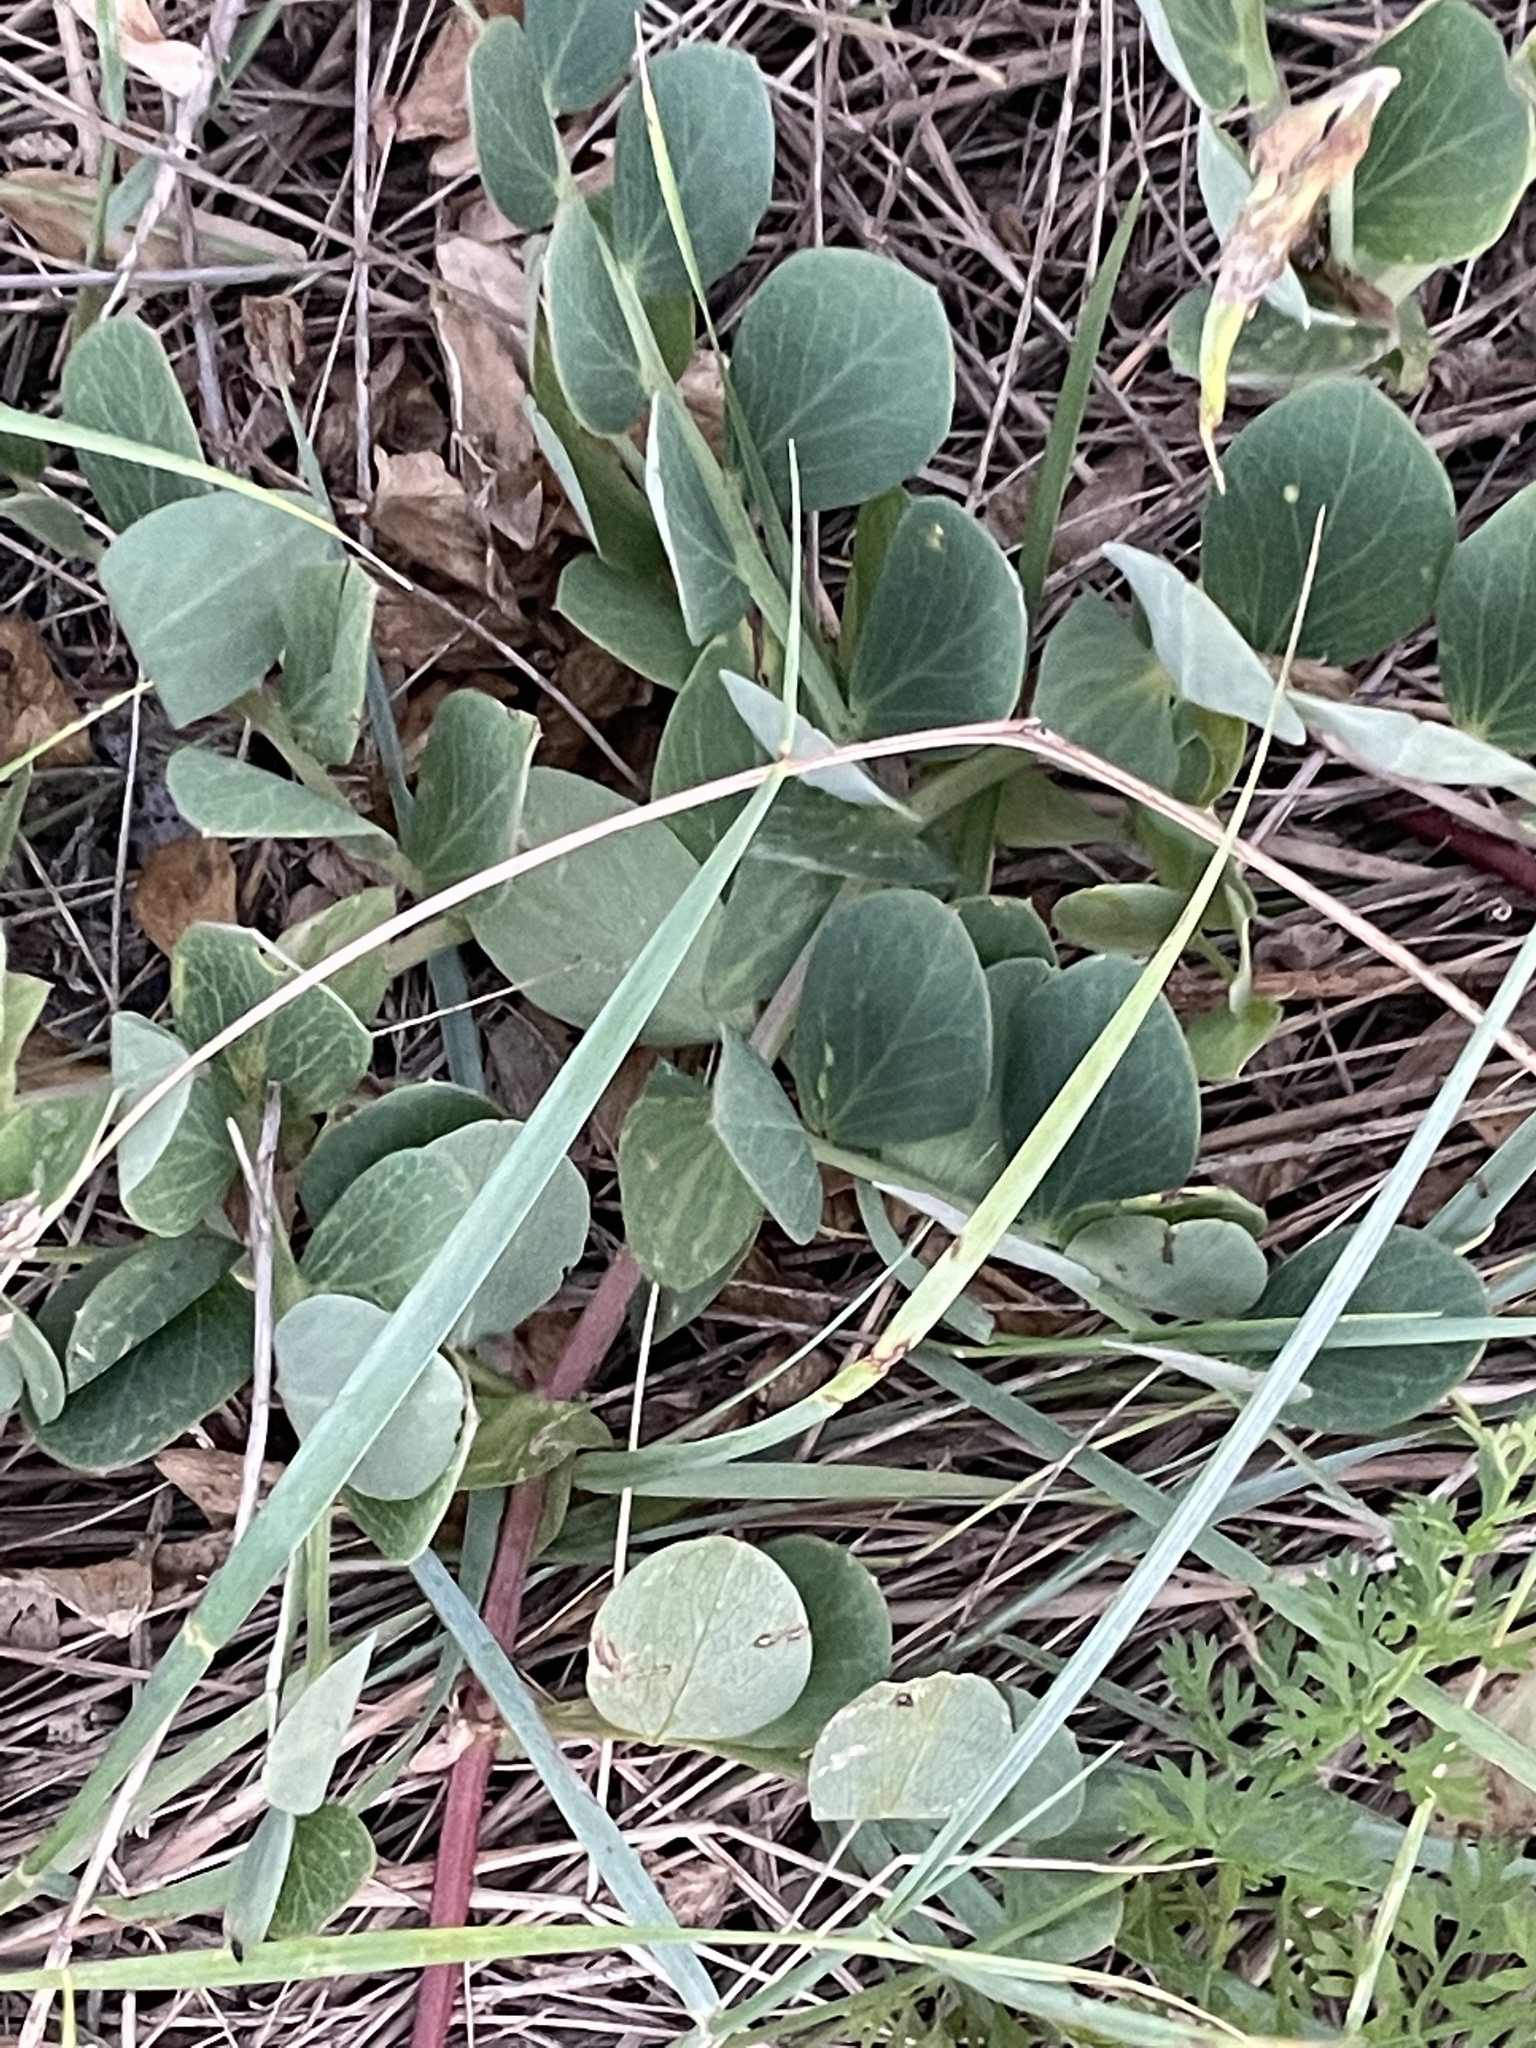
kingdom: Plantae
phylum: Tracheophyta
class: Magnoliopsida
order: Fabales
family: Fabaceae
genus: Lathyrus
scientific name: Lathyrus japonicus
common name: Sea pea
